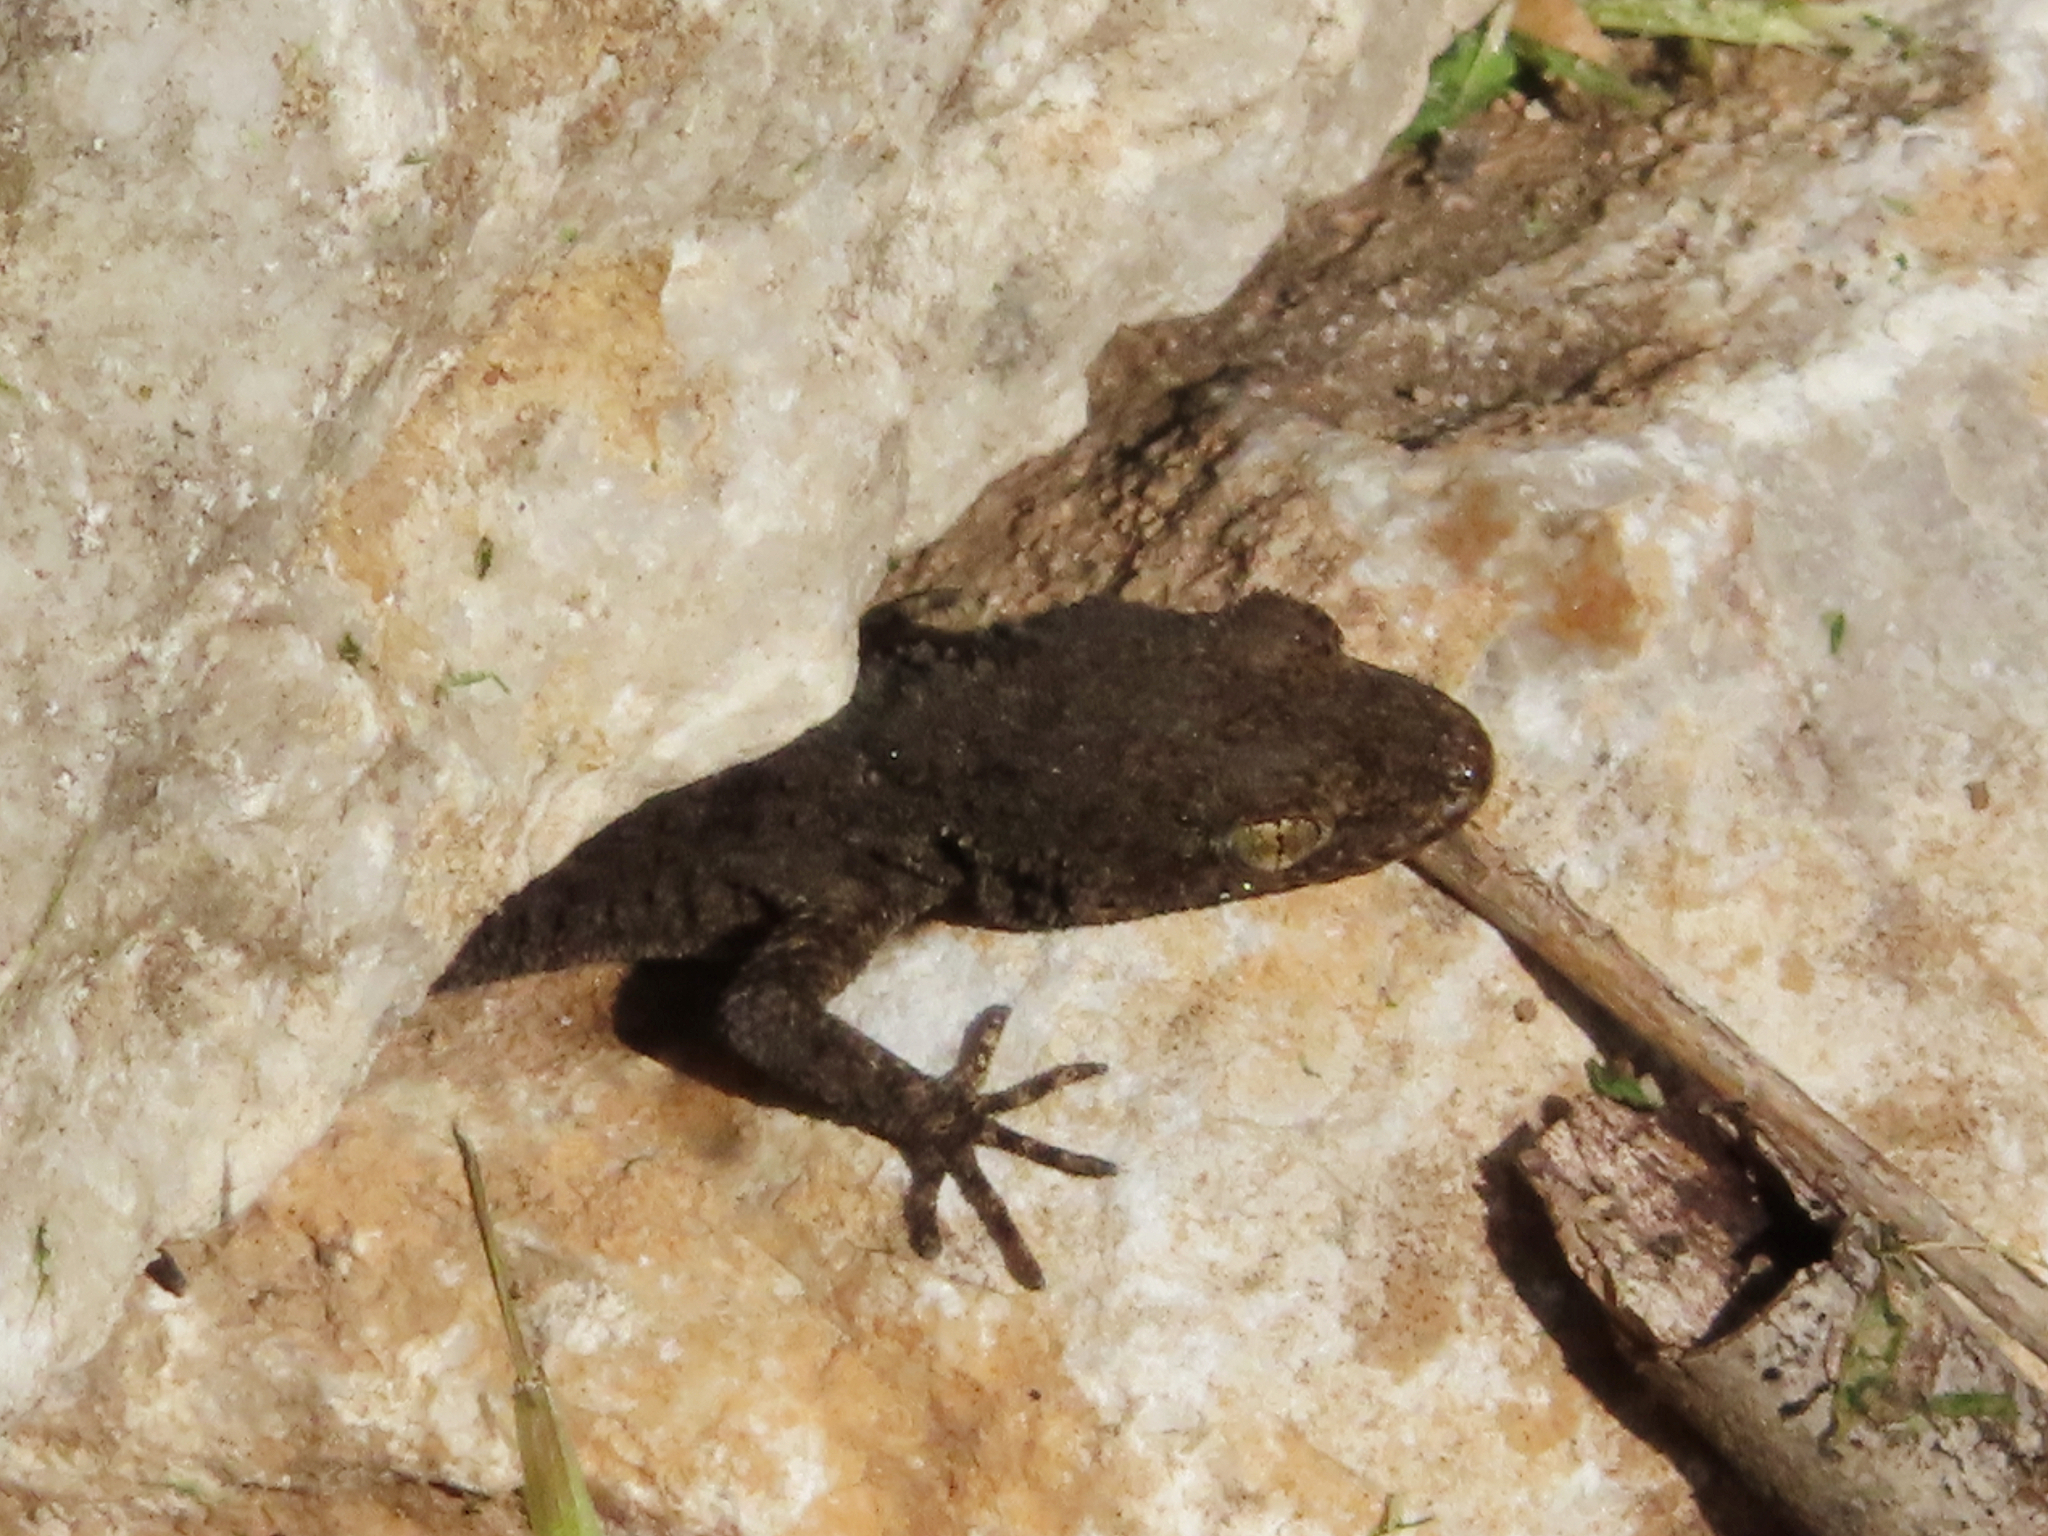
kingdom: Animalia
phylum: Chordata
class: Squamata
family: Gekkonidae
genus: Mediodactylus
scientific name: Mediodactylus kotschyi
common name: Kotschy's gecko
